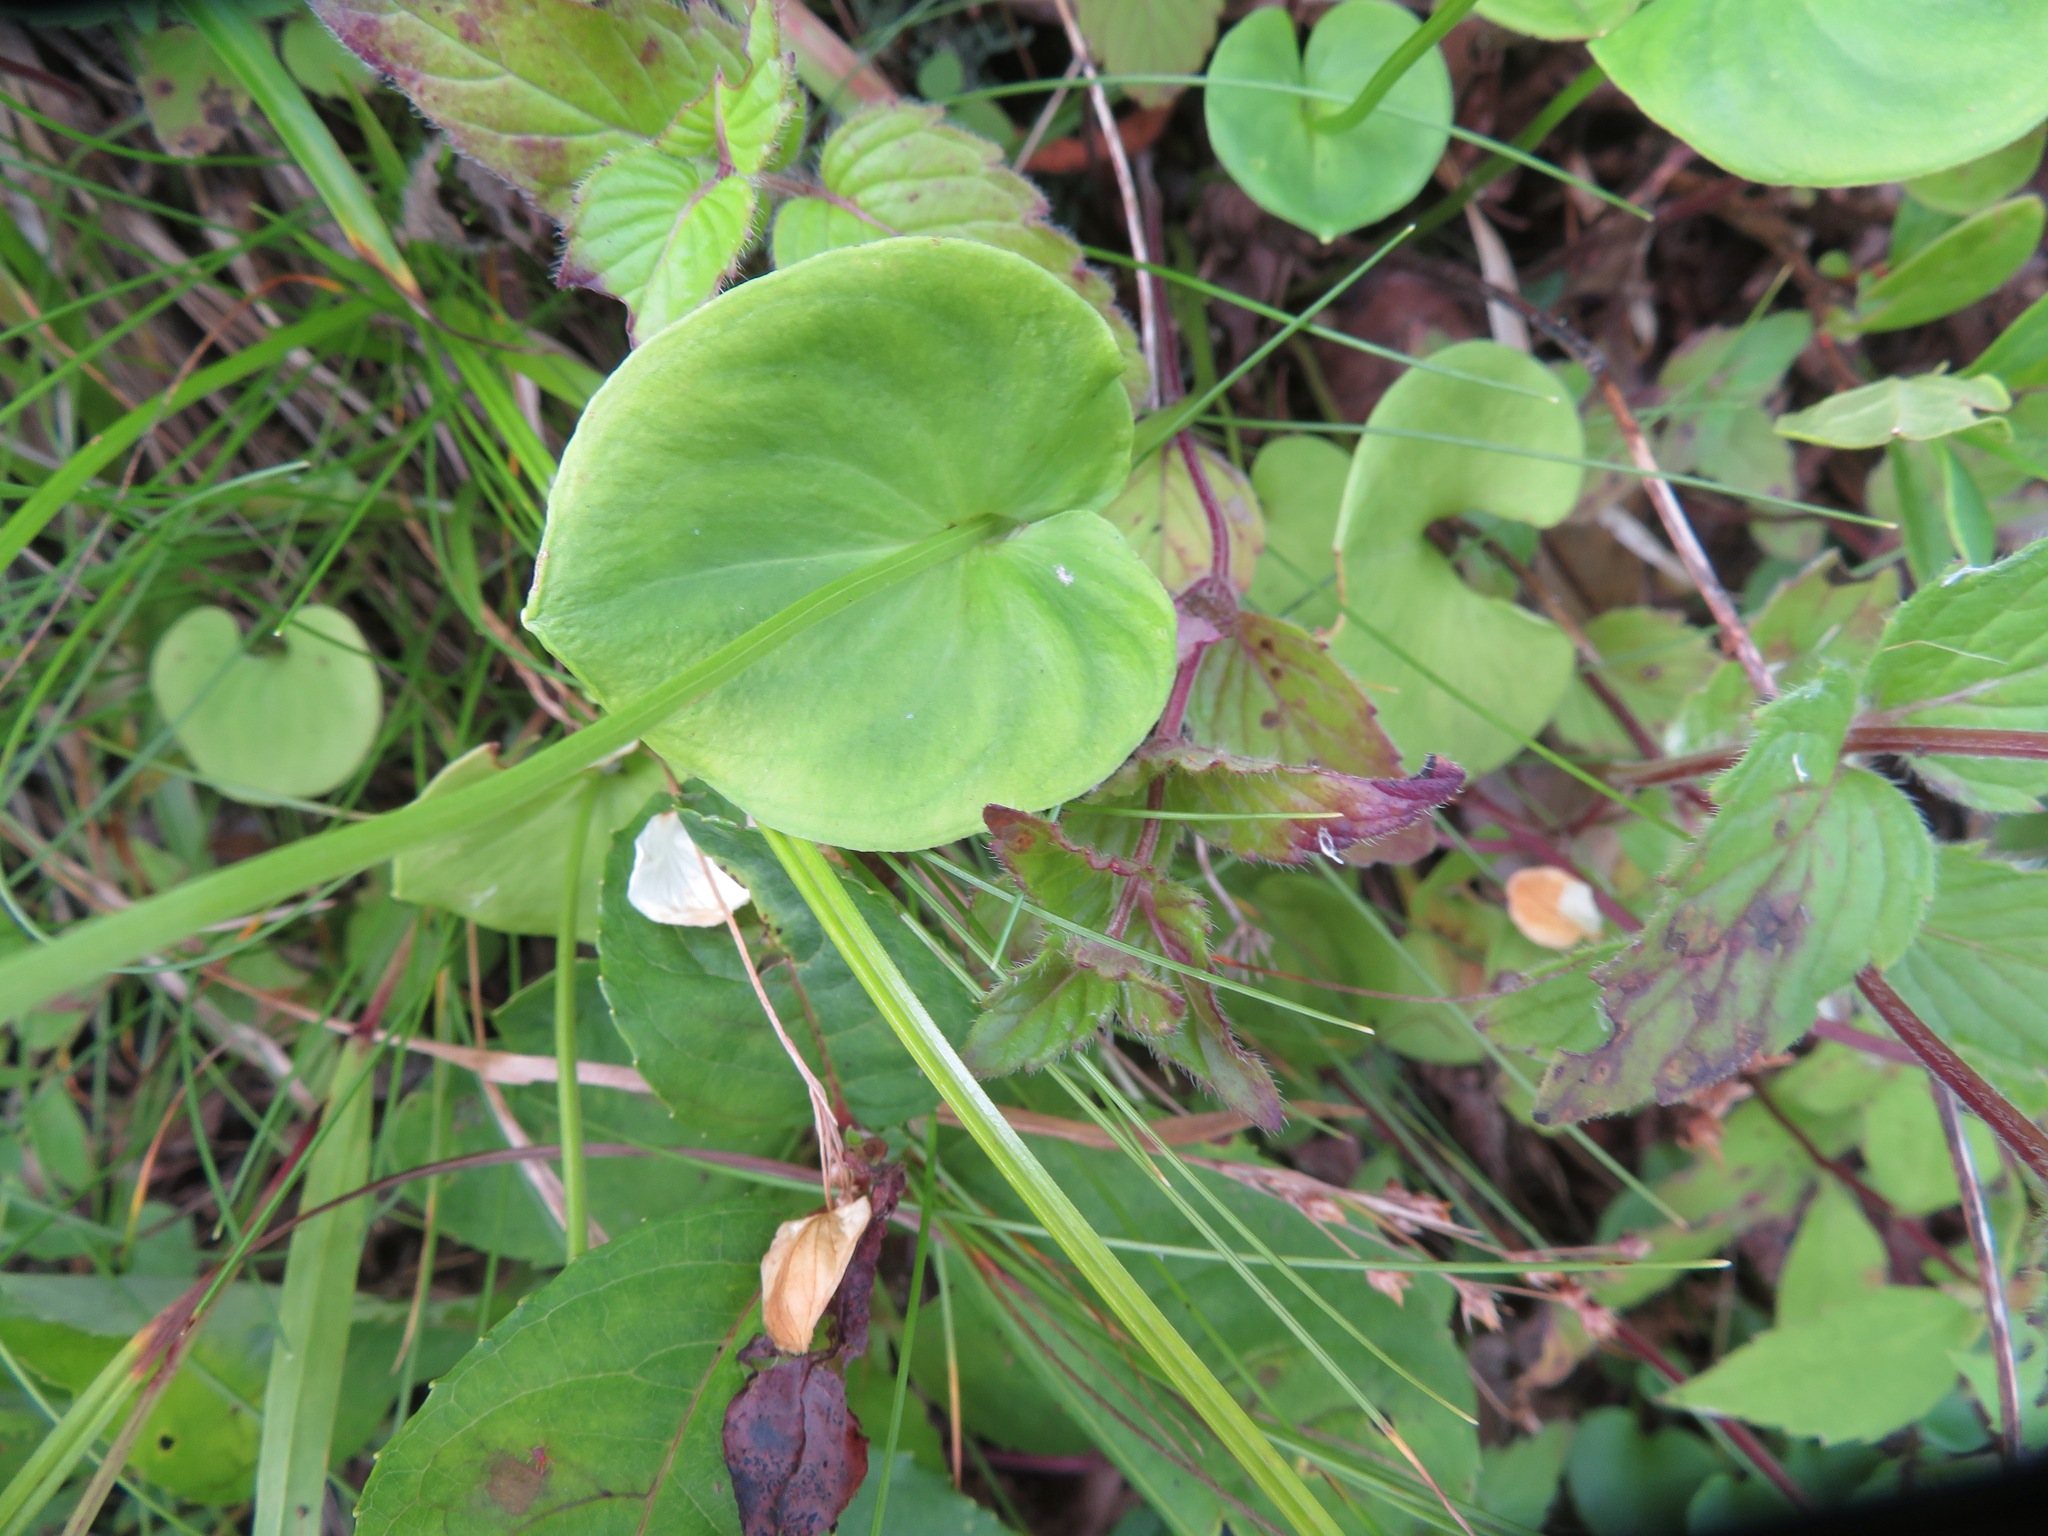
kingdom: Plantae
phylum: Tracheophyta
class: Magnoliopsida
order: Celastrales
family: Parnassiaceae
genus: Parnassia
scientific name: Parnassia palustris
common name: Grass-of-parnassus
